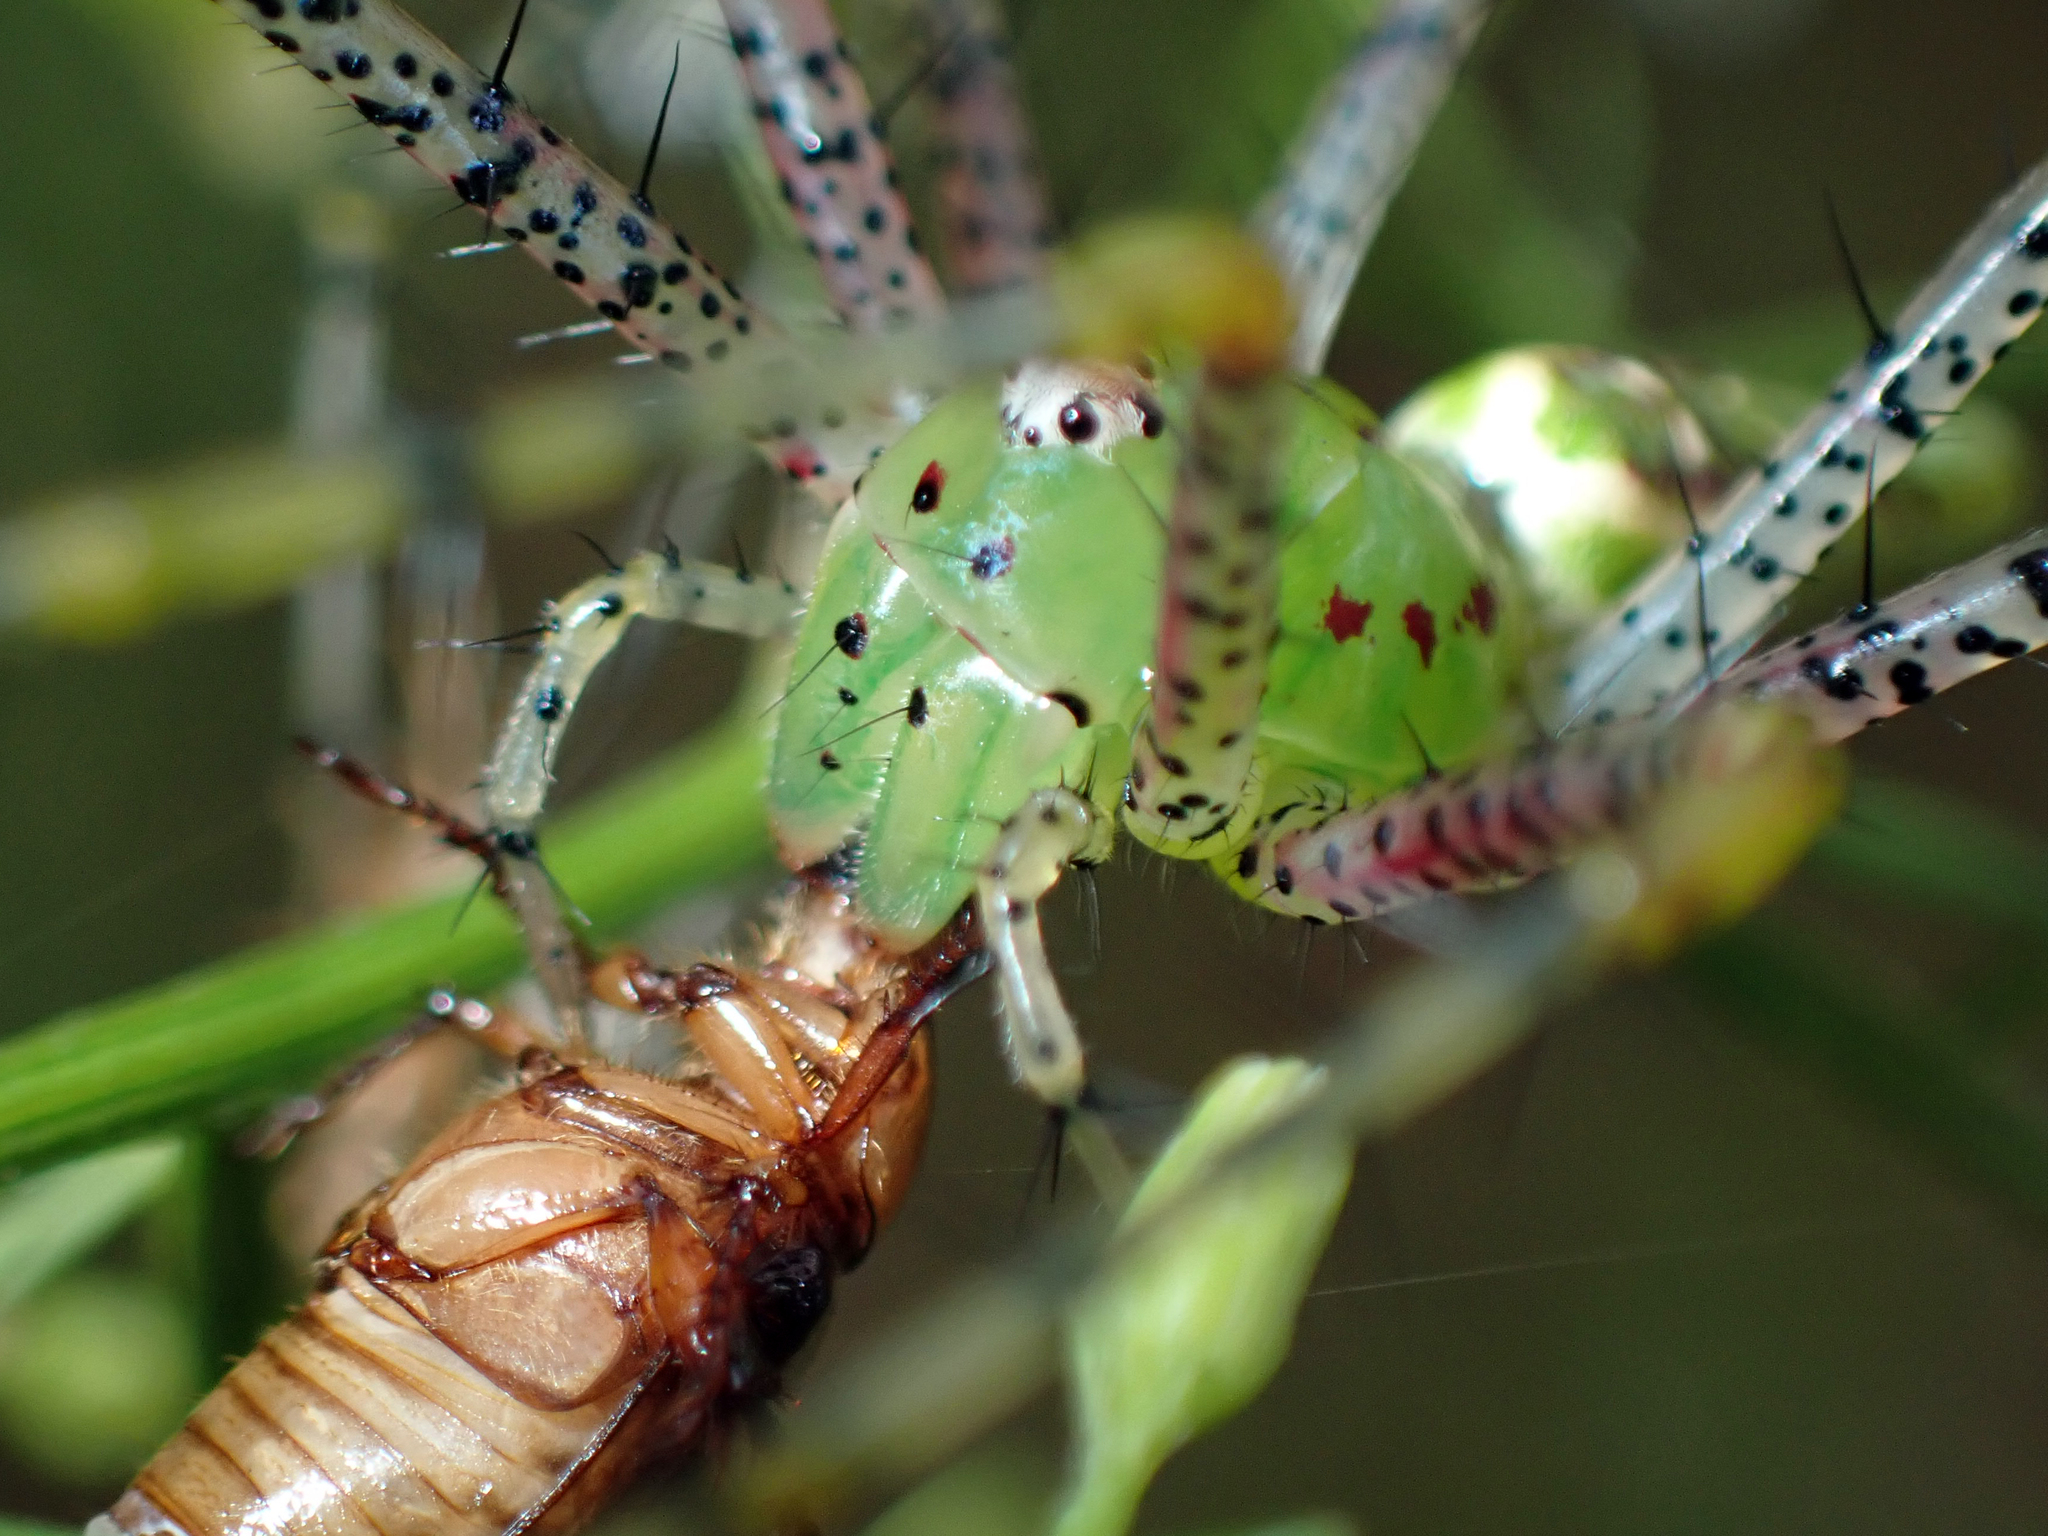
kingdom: Animalia
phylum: Arthropoda
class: Arachnida
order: Araneae
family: Oxyopidae
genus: Peucetia
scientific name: Peucetia viridans
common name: Lynx spiders
